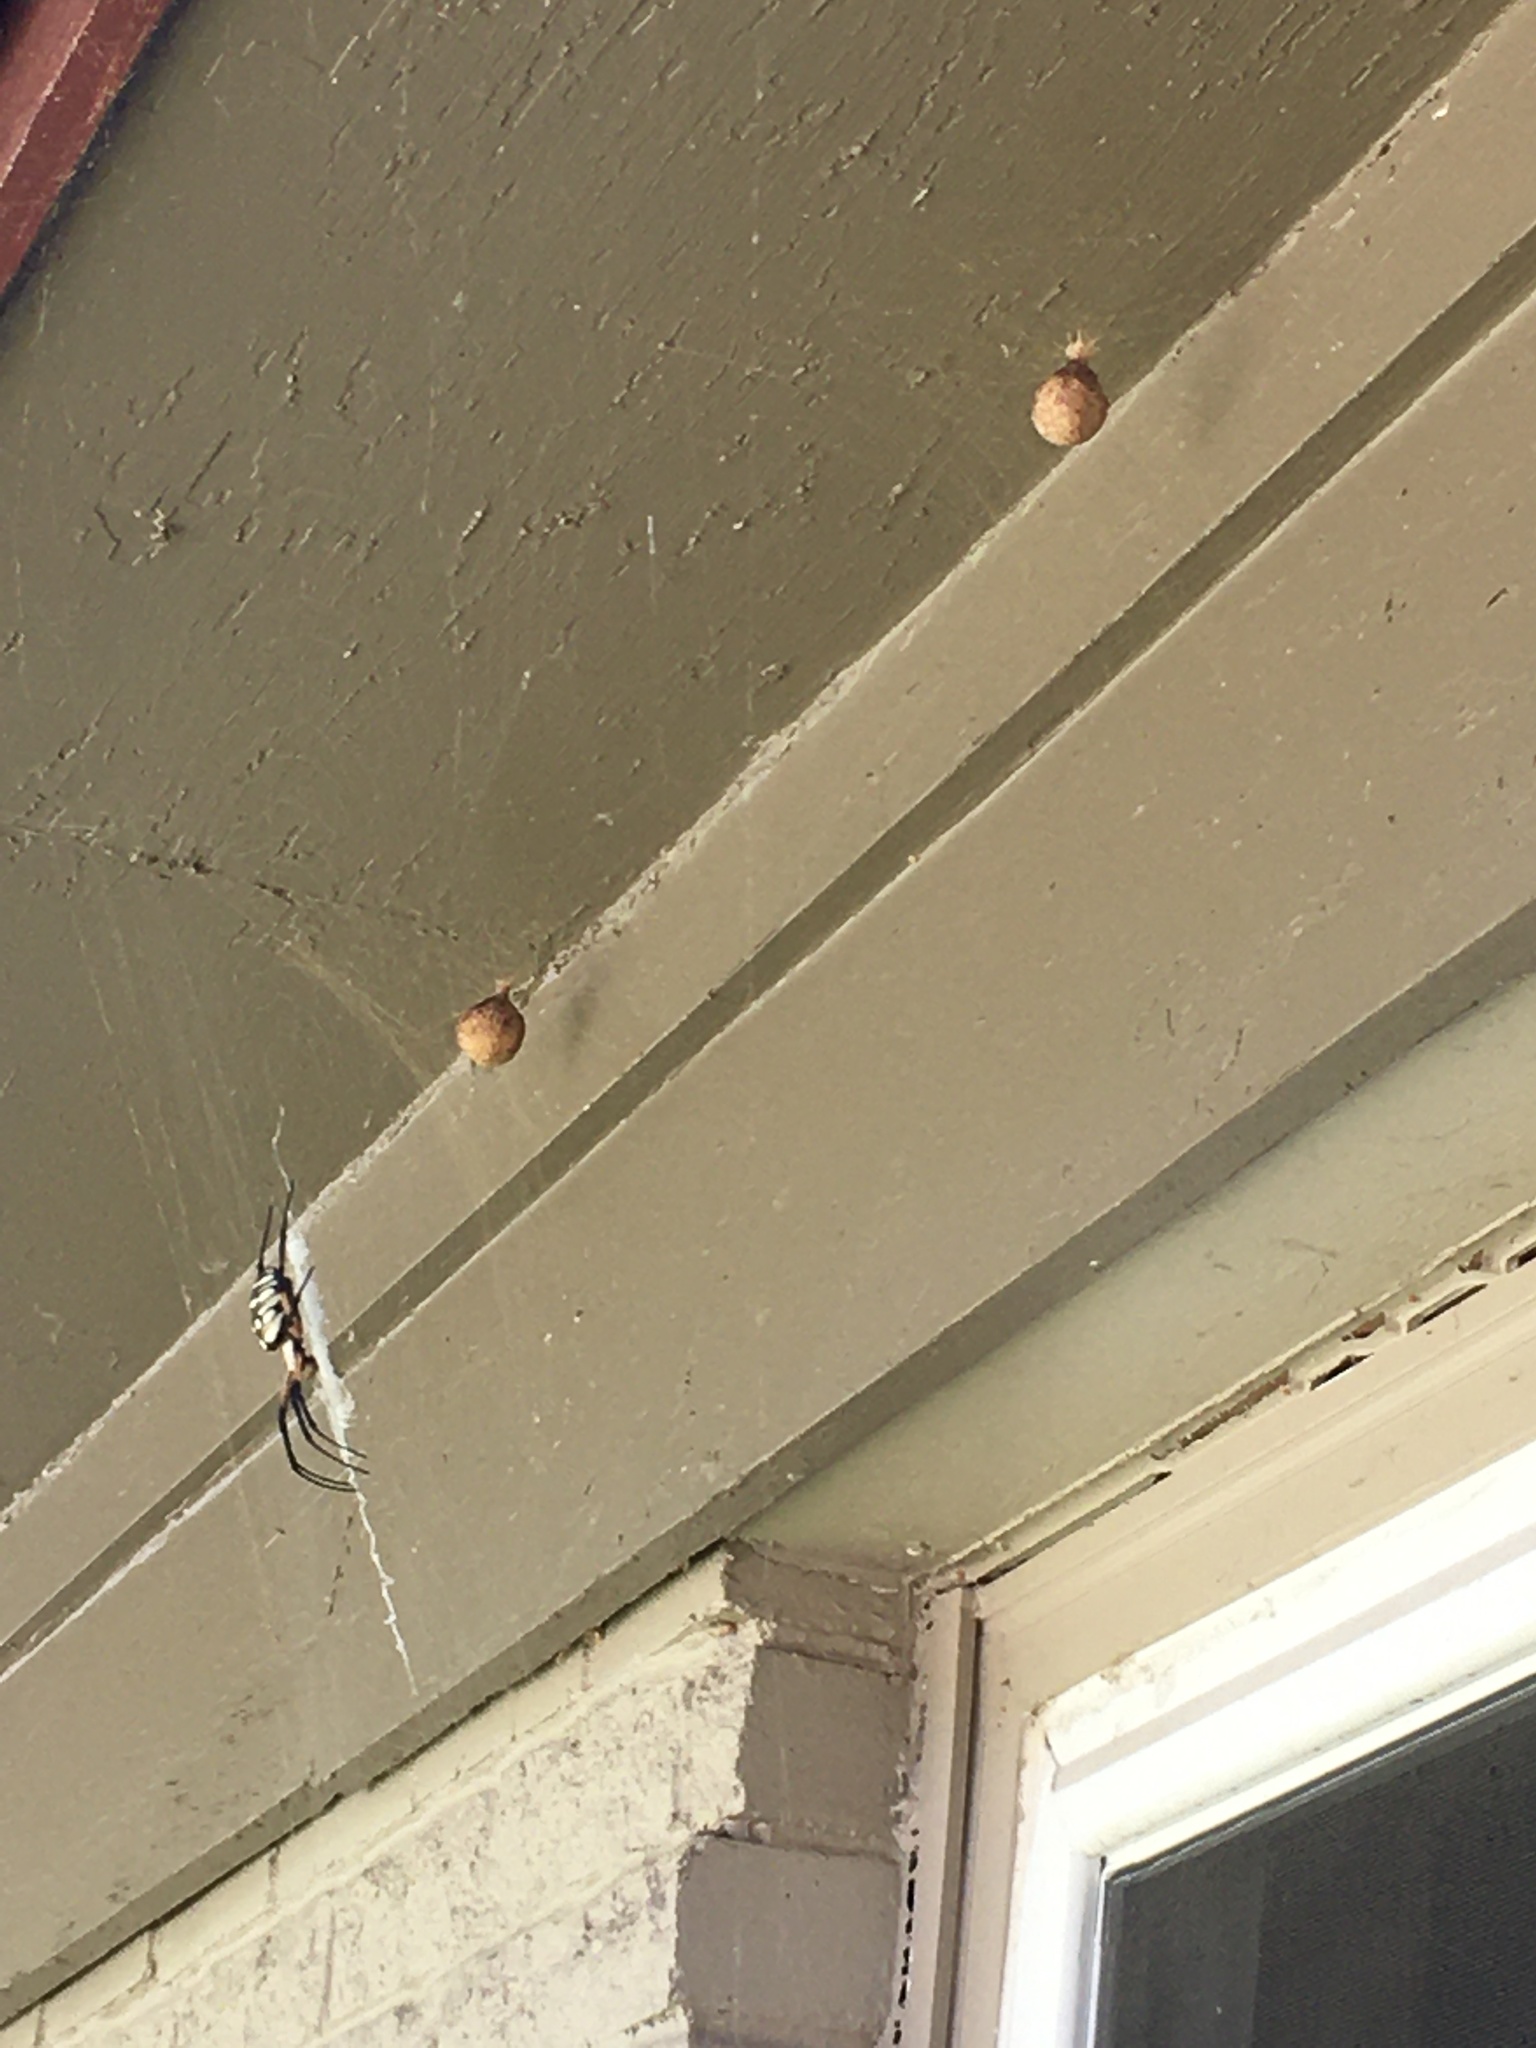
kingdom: Animalia
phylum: Arthropoda
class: Arachnida
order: Araneae
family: Araneidae
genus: Argiope
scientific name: Argiope aurantia
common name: Orb weavers
